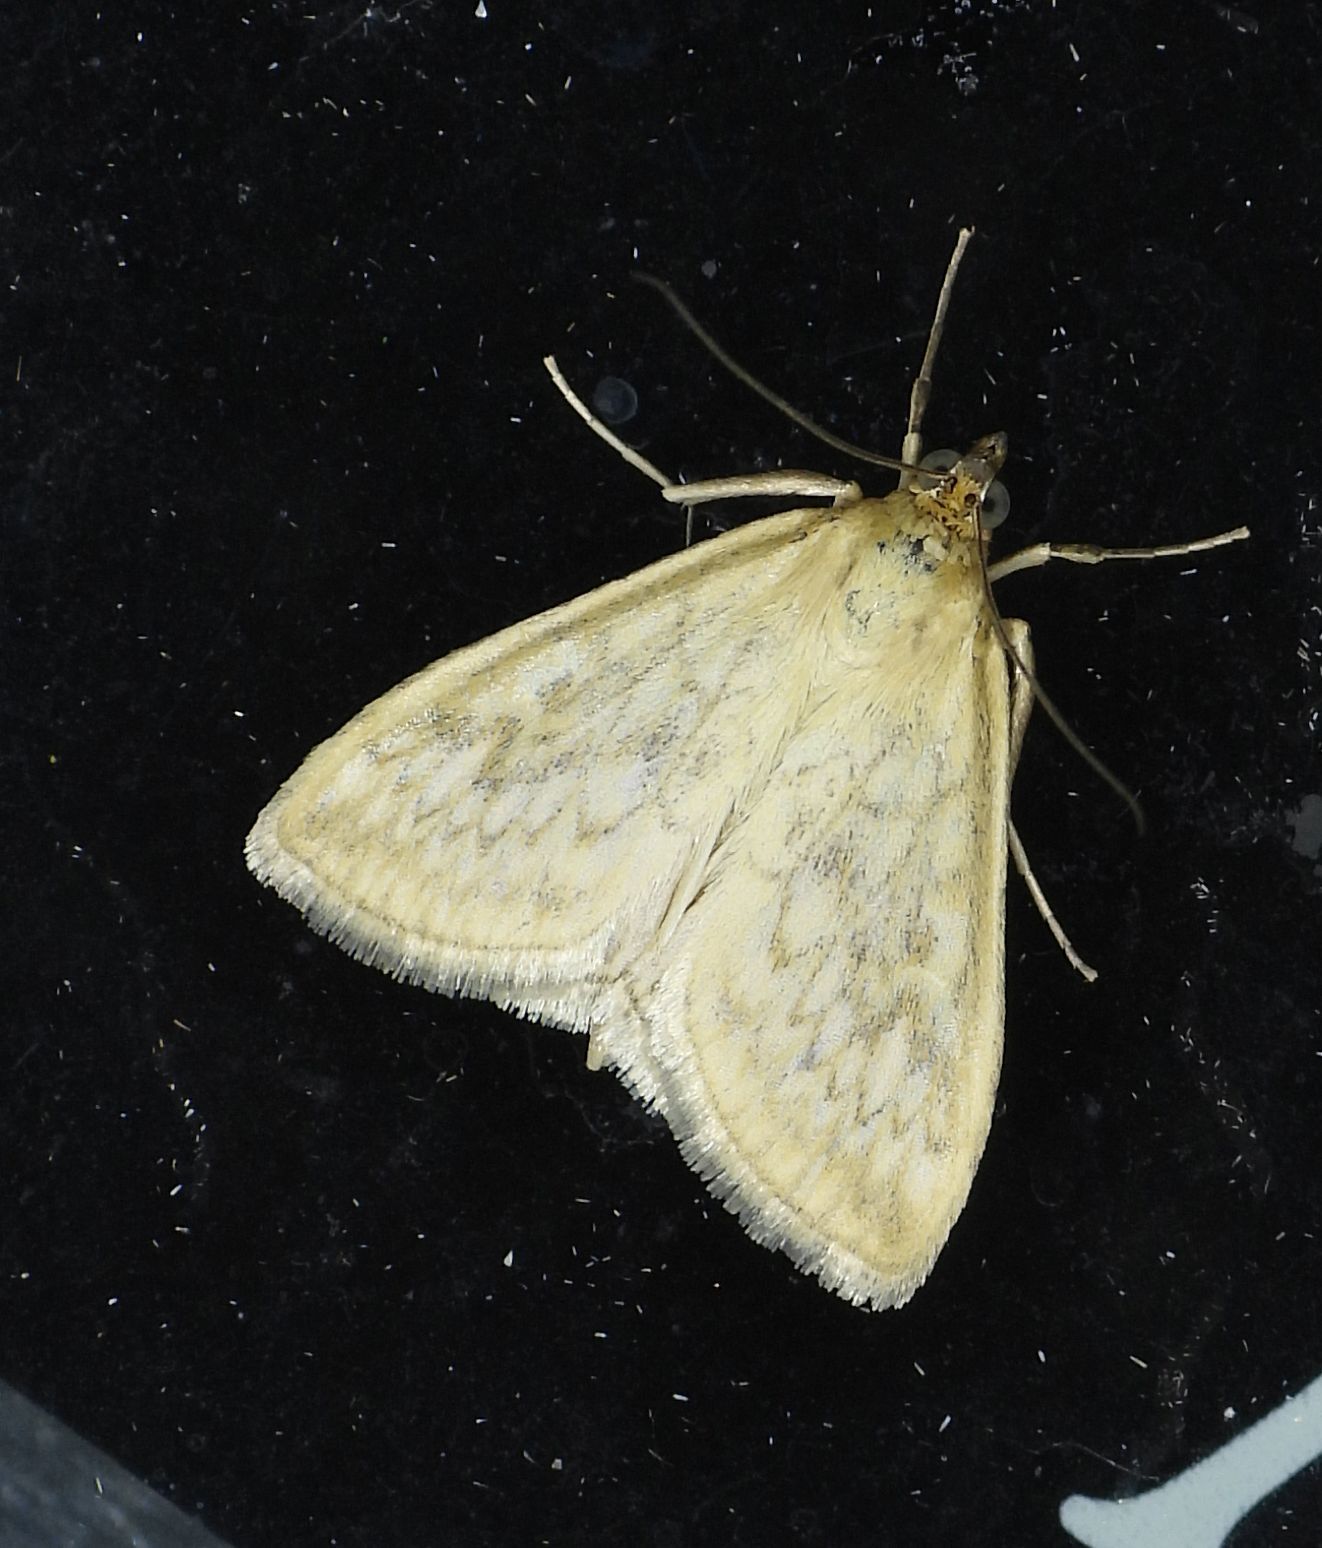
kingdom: Animalia
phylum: Arthropoda
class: Insecta
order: Lepidoptera
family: Crambidae
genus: Sitochroa
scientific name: Sitochroa chortalis
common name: Dimorphic sitochroa moth
